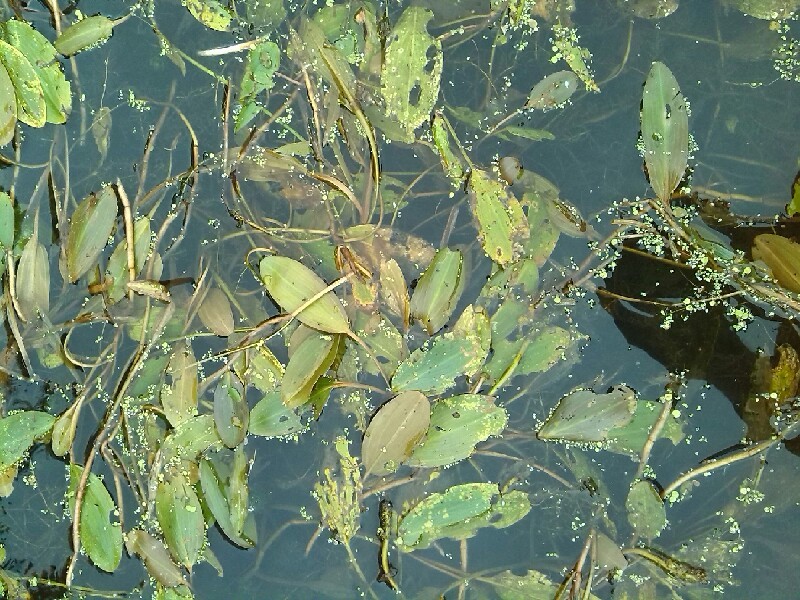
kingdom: Plantae
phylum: Tracheophyta
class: Liliopsida
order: Alismatales
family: Potamogetonaceae
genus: Potamogeton
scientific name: Potamogeton nodosus
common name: Loddon pondweed
